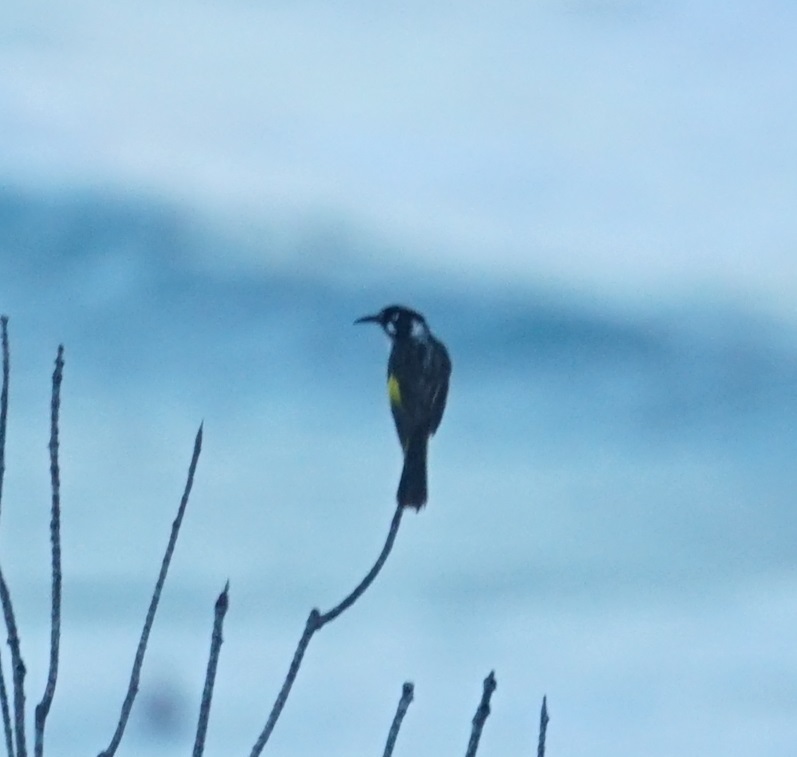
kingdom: Animalia
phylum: Chordata
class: Aves
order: Passeriformes
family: Meliphagidae
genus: Phylidonyris
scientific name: Phylidonyris novaehollandiae
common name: New holland honeyeater
